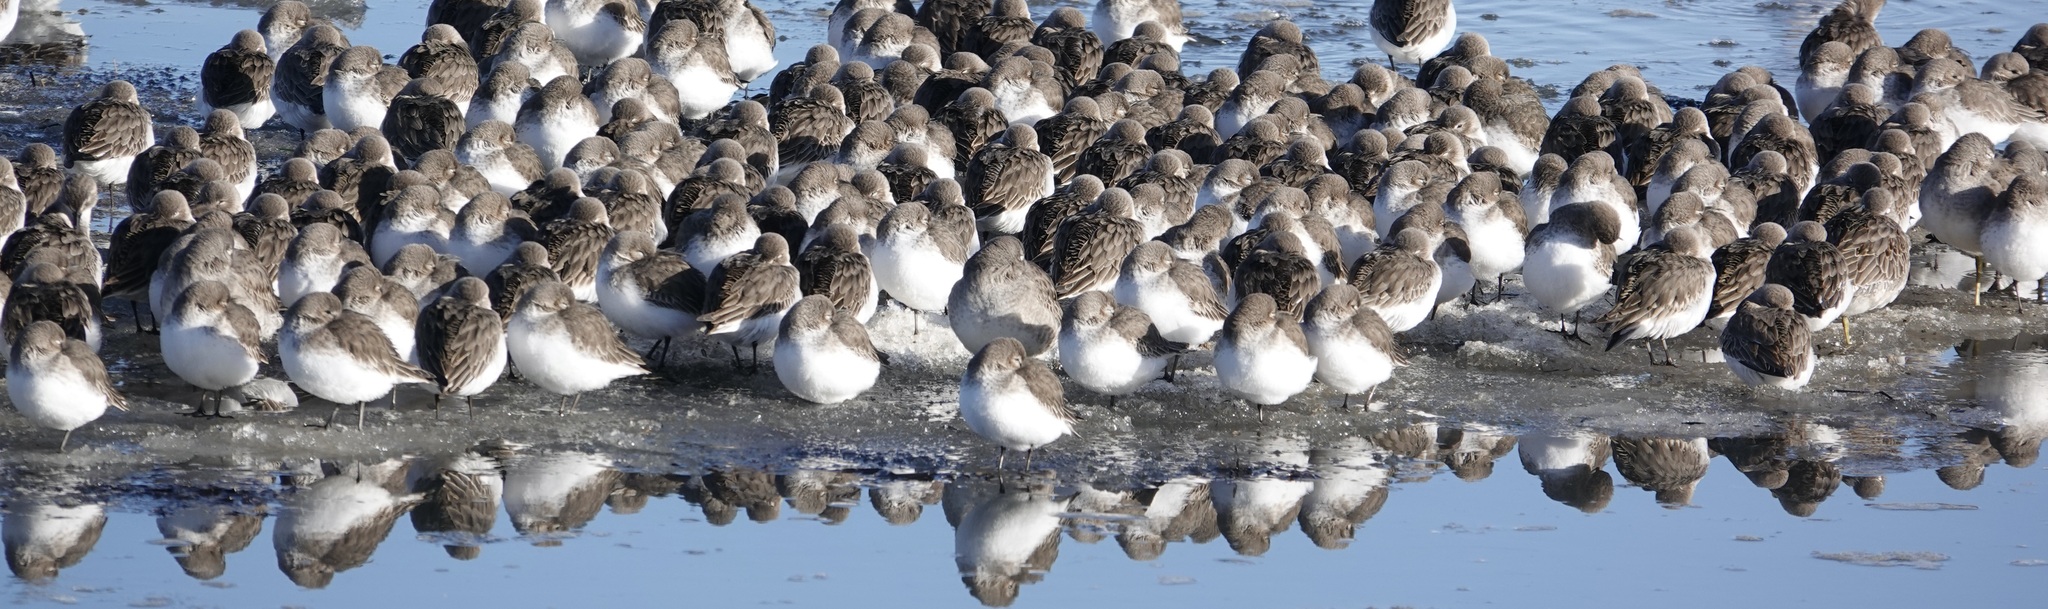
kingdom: Animalia
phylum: Chordata
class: Aves
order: Charadriiformes
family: Scolopacidae
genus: Calidris
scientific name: Calidris alpina
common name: Dunlin
